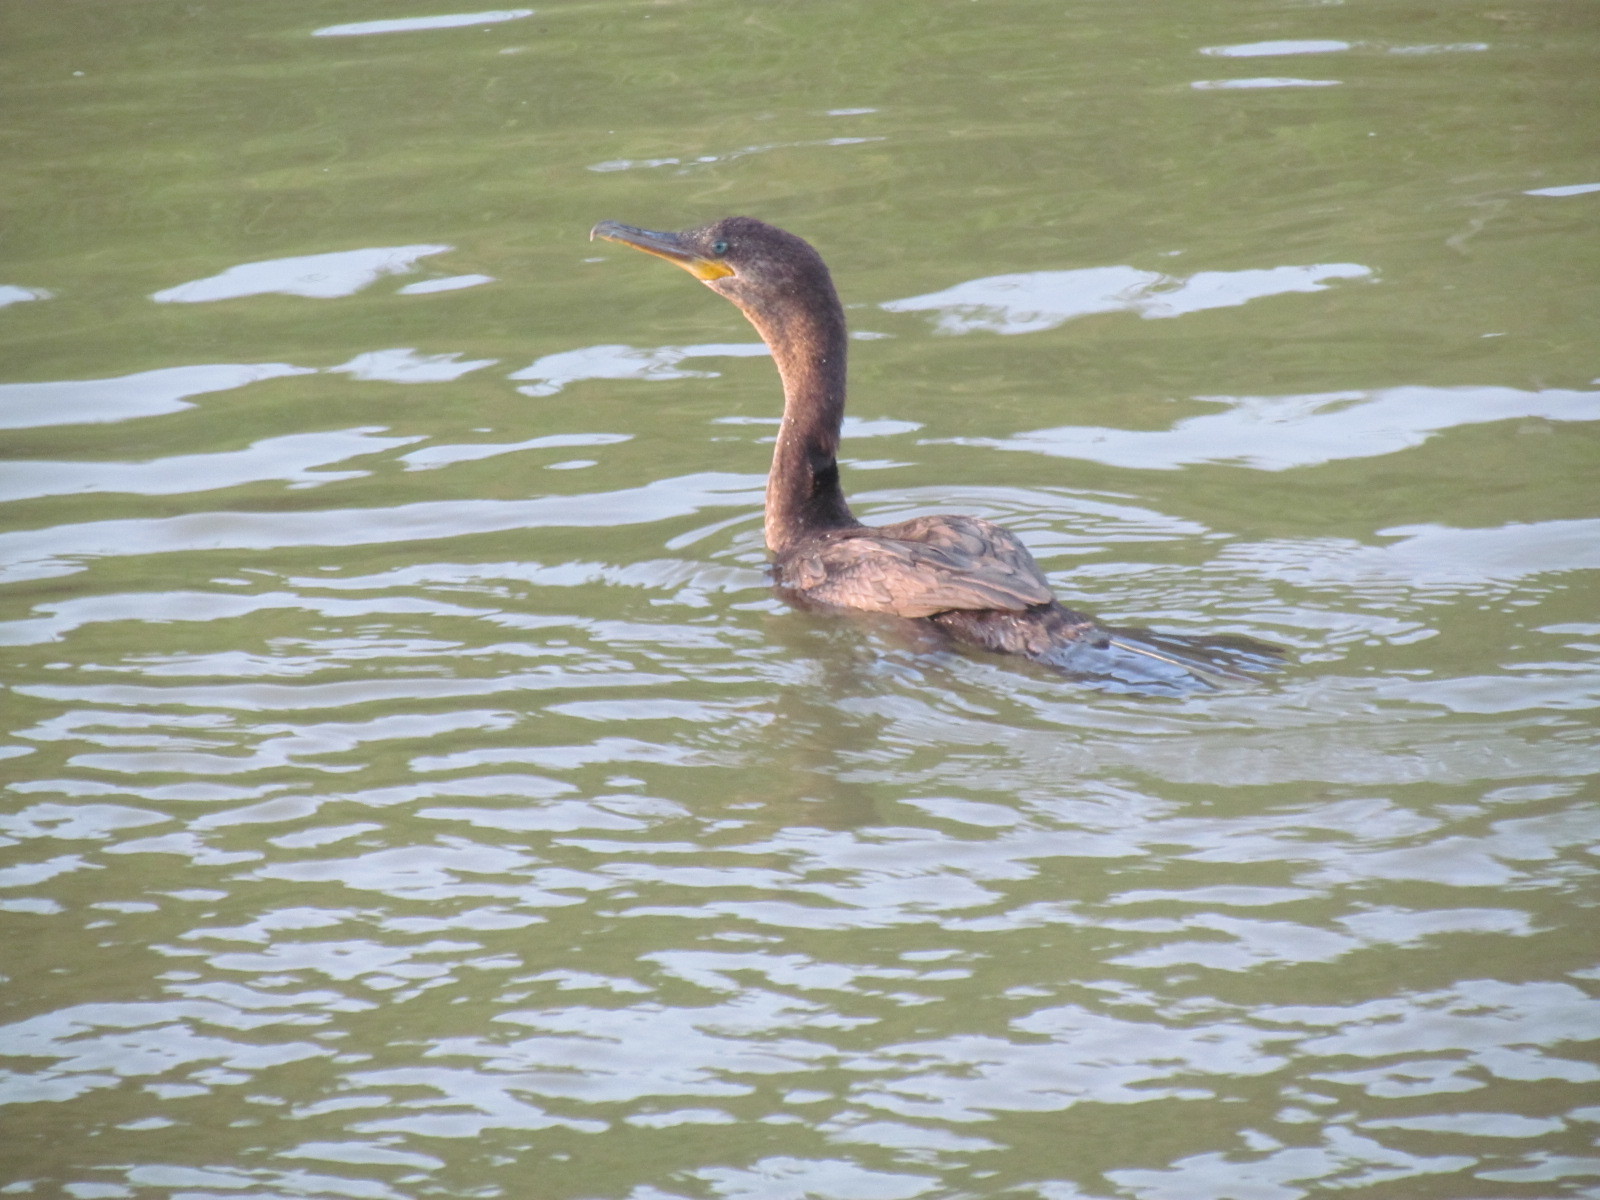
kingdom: Animalia
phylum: Chordata
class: Aves
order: Suliformes
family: Phalacrocoracidae
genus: Phalacrocorax
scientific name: Phalacrocorax brasilianus
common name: Neotropic cormorant
